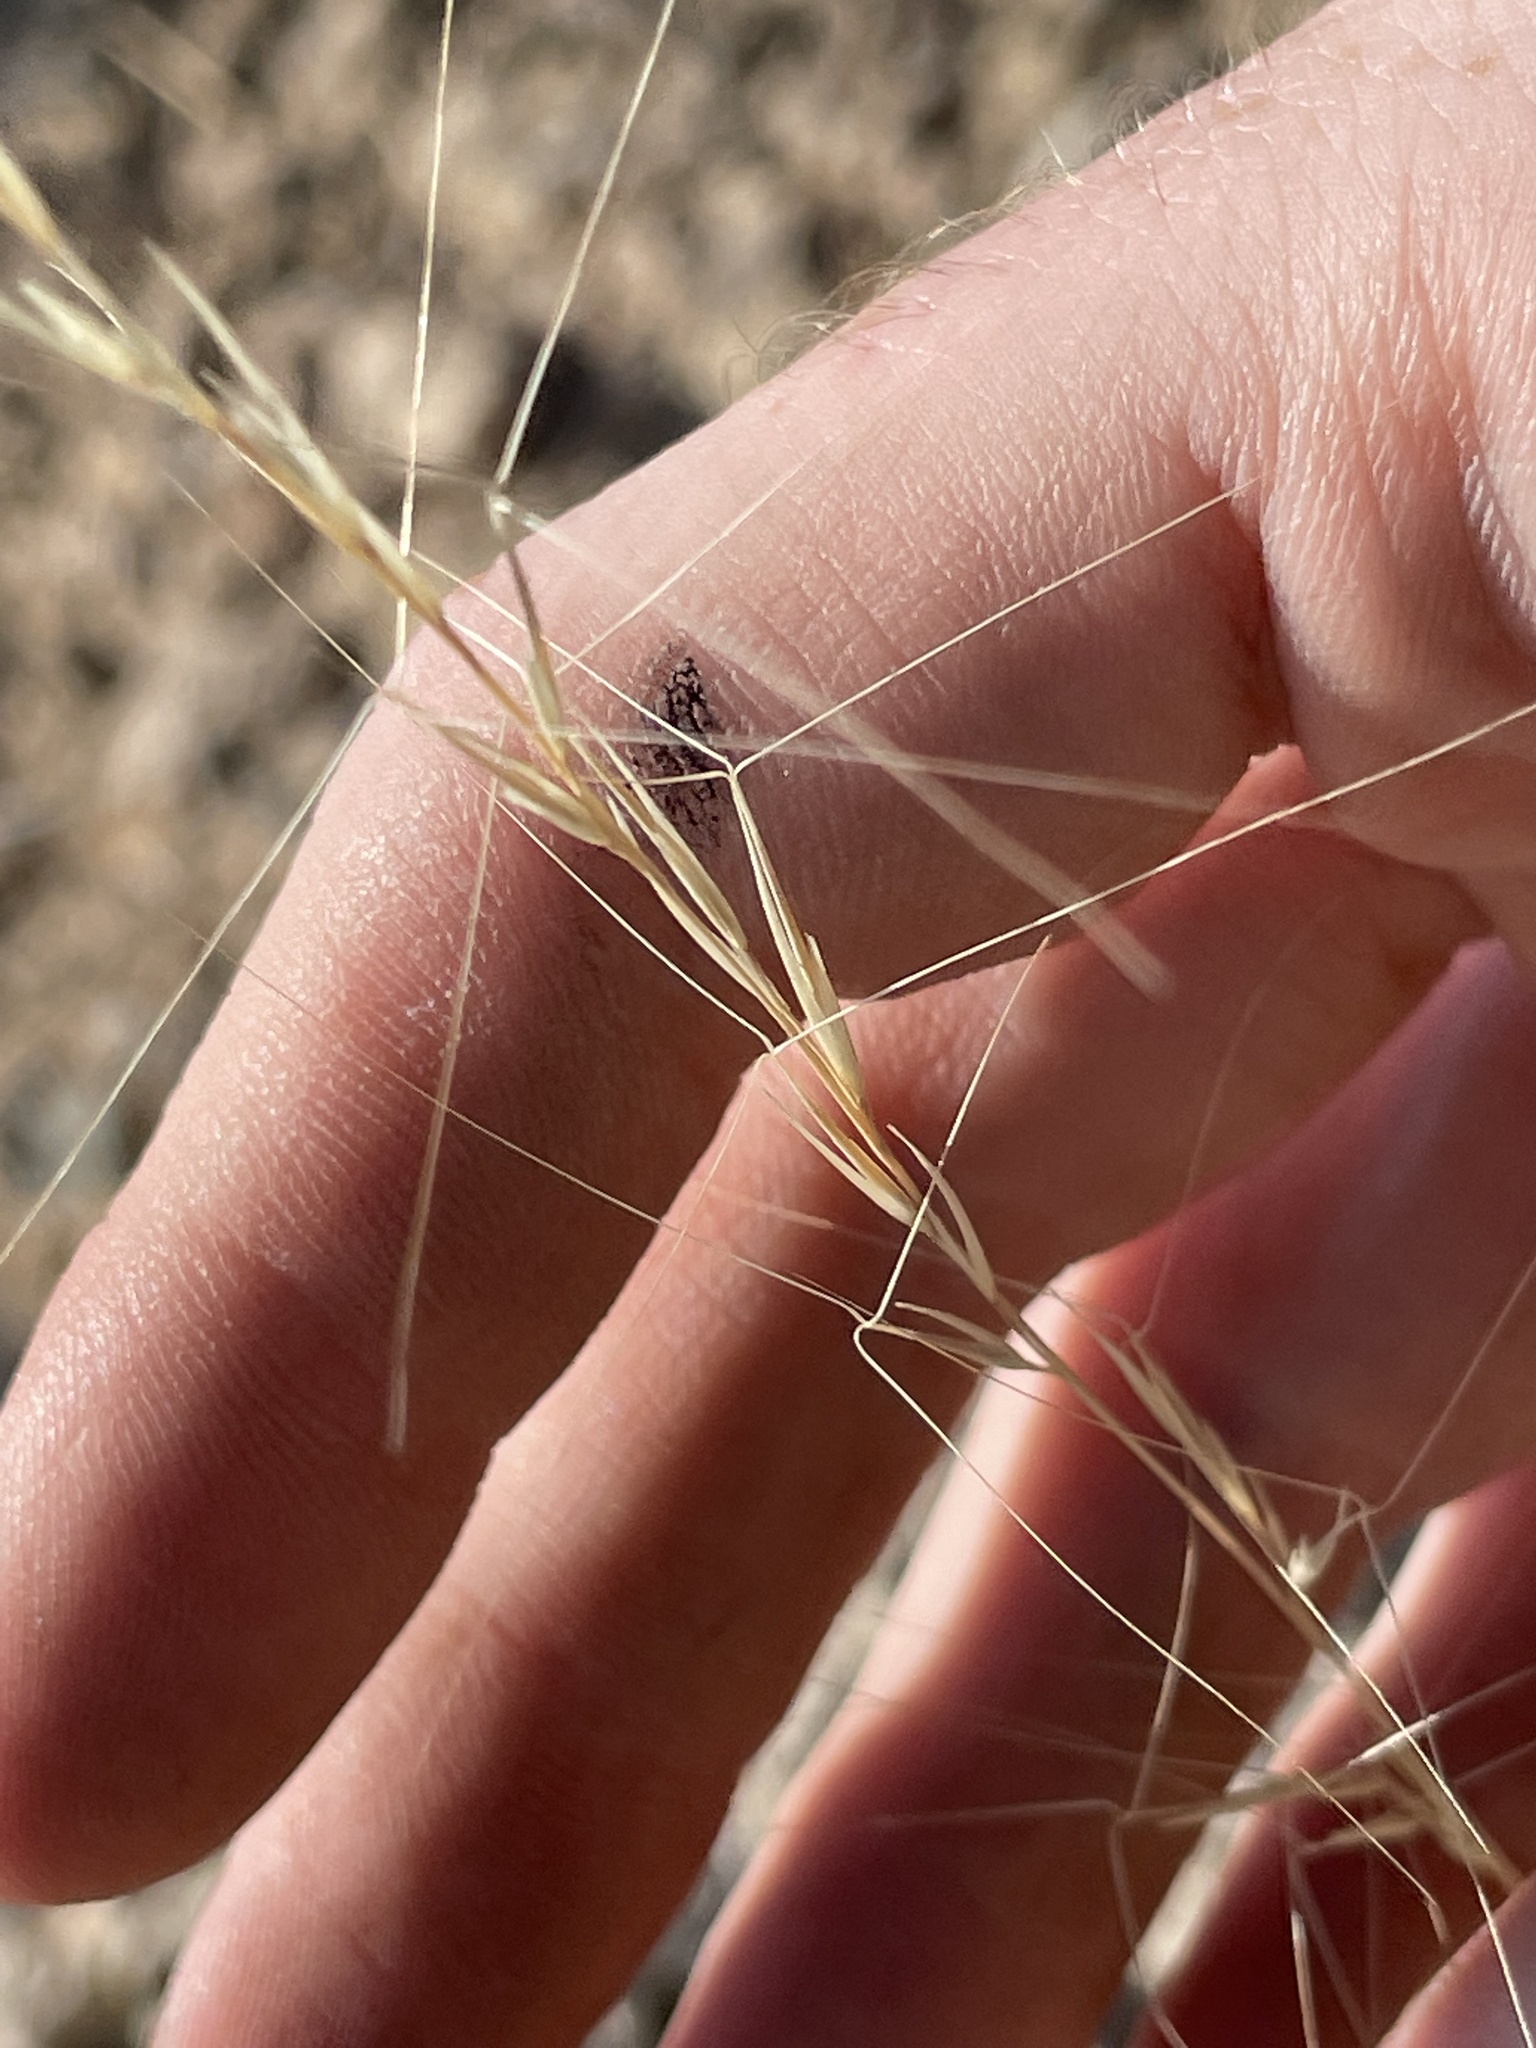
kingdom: Plantae
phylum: Tracheophyta
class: Liliopsida
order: Poales
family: Poaceae
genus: Aristida
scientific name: Aristida purpurea
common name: Purple threeawn
